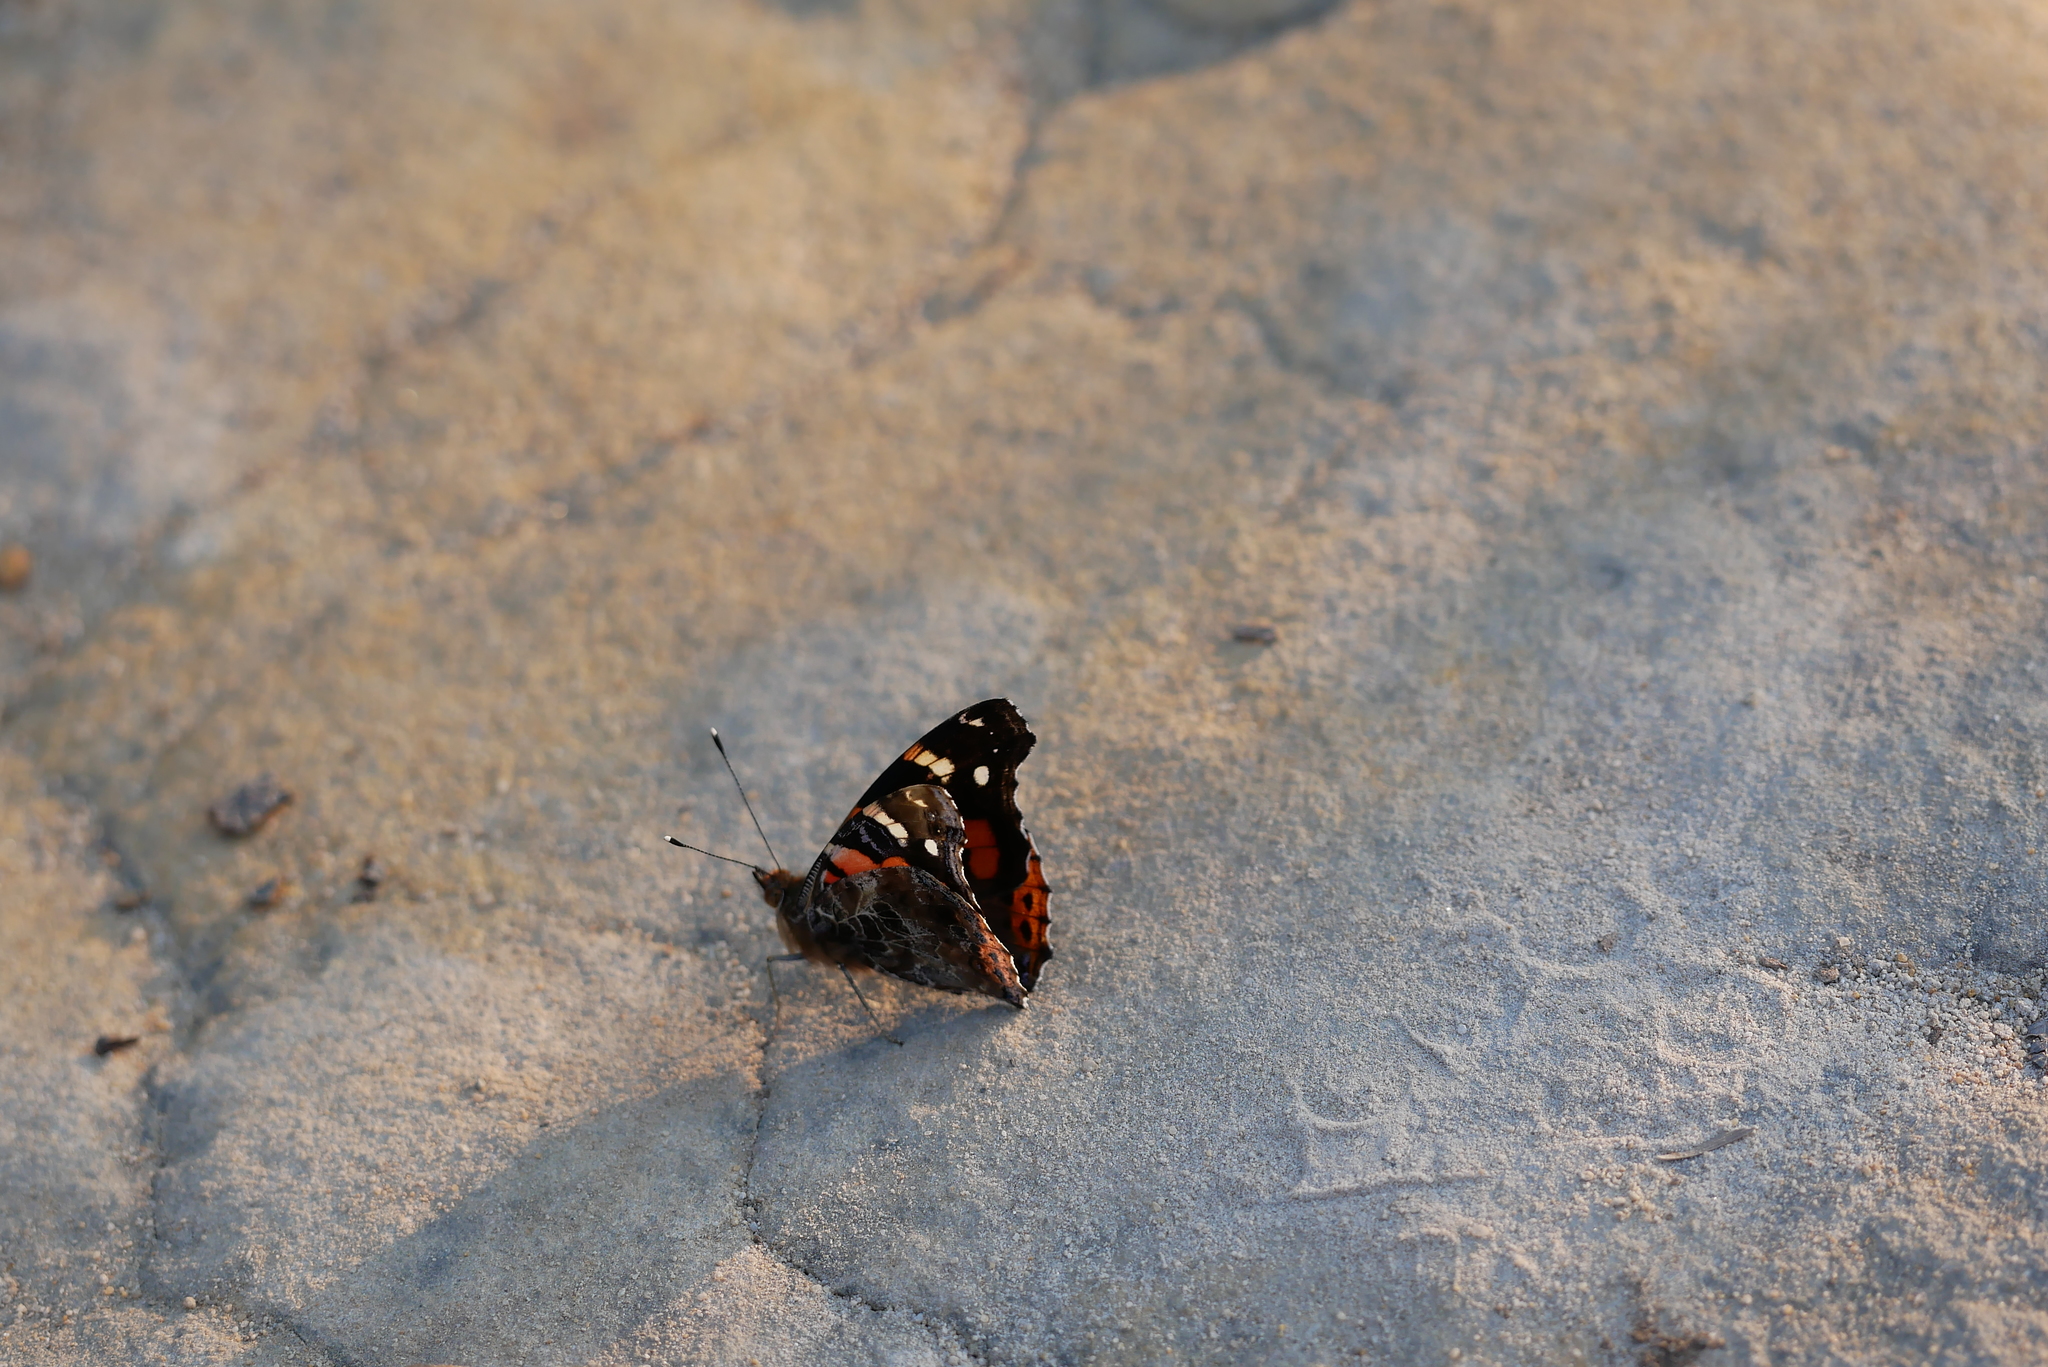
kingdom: Animalia
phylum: Arthropoda
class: Insecta
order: Lepidoptera
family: Nymphalidae
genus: Vanessa
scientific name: Vanessa indica
